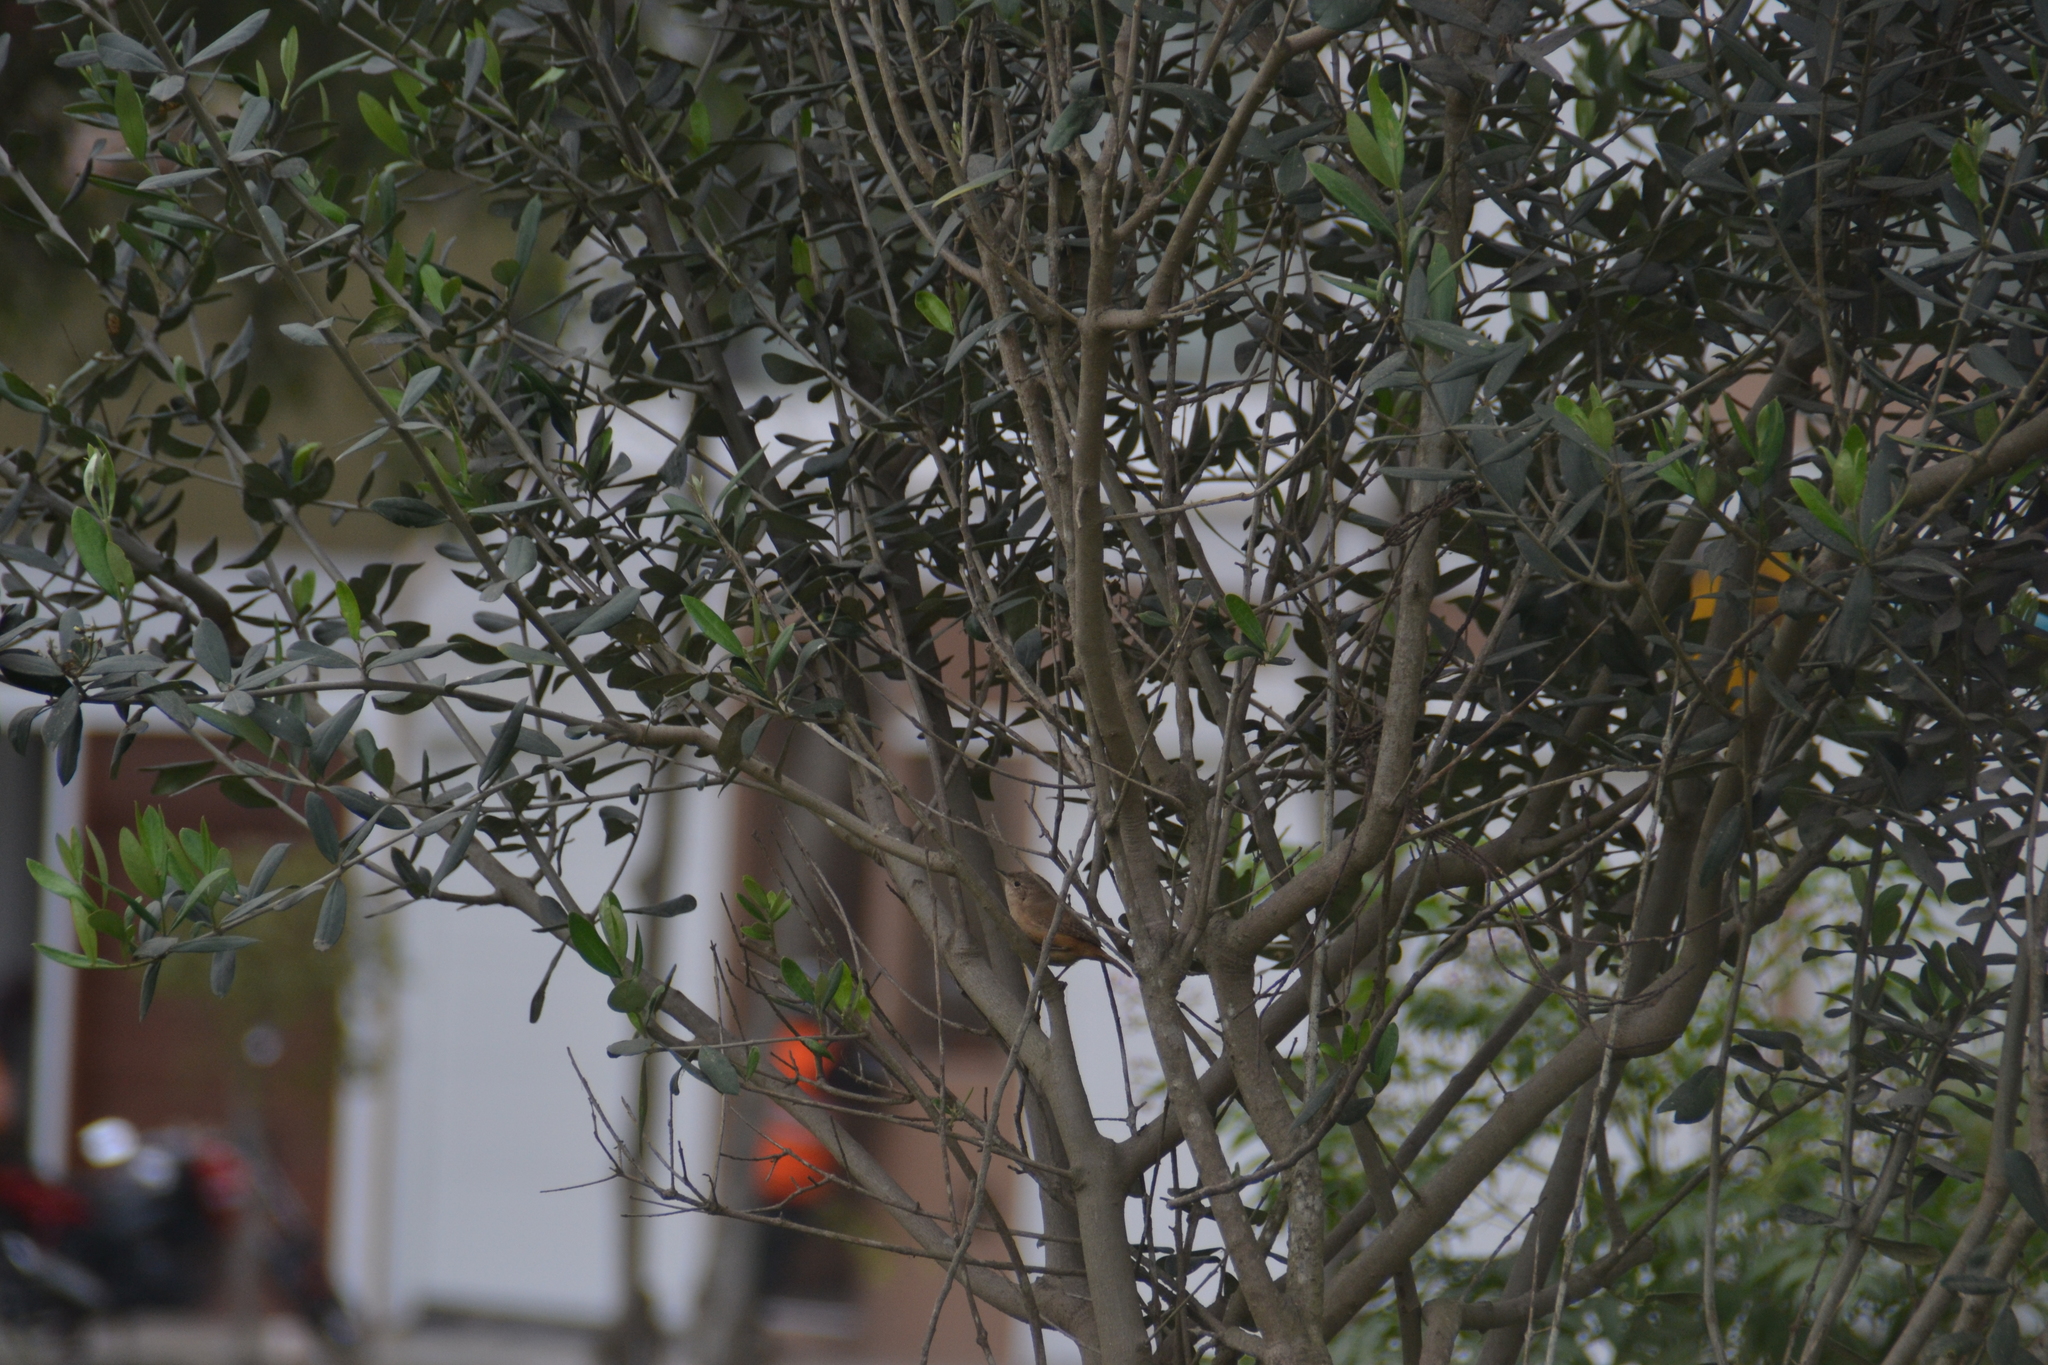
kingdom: Animalia
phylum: Chordata
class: Aves
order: Passeriformes
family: Troglodytidae
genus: Troglodytes
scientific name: Troglodytes aedon
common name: House wren
